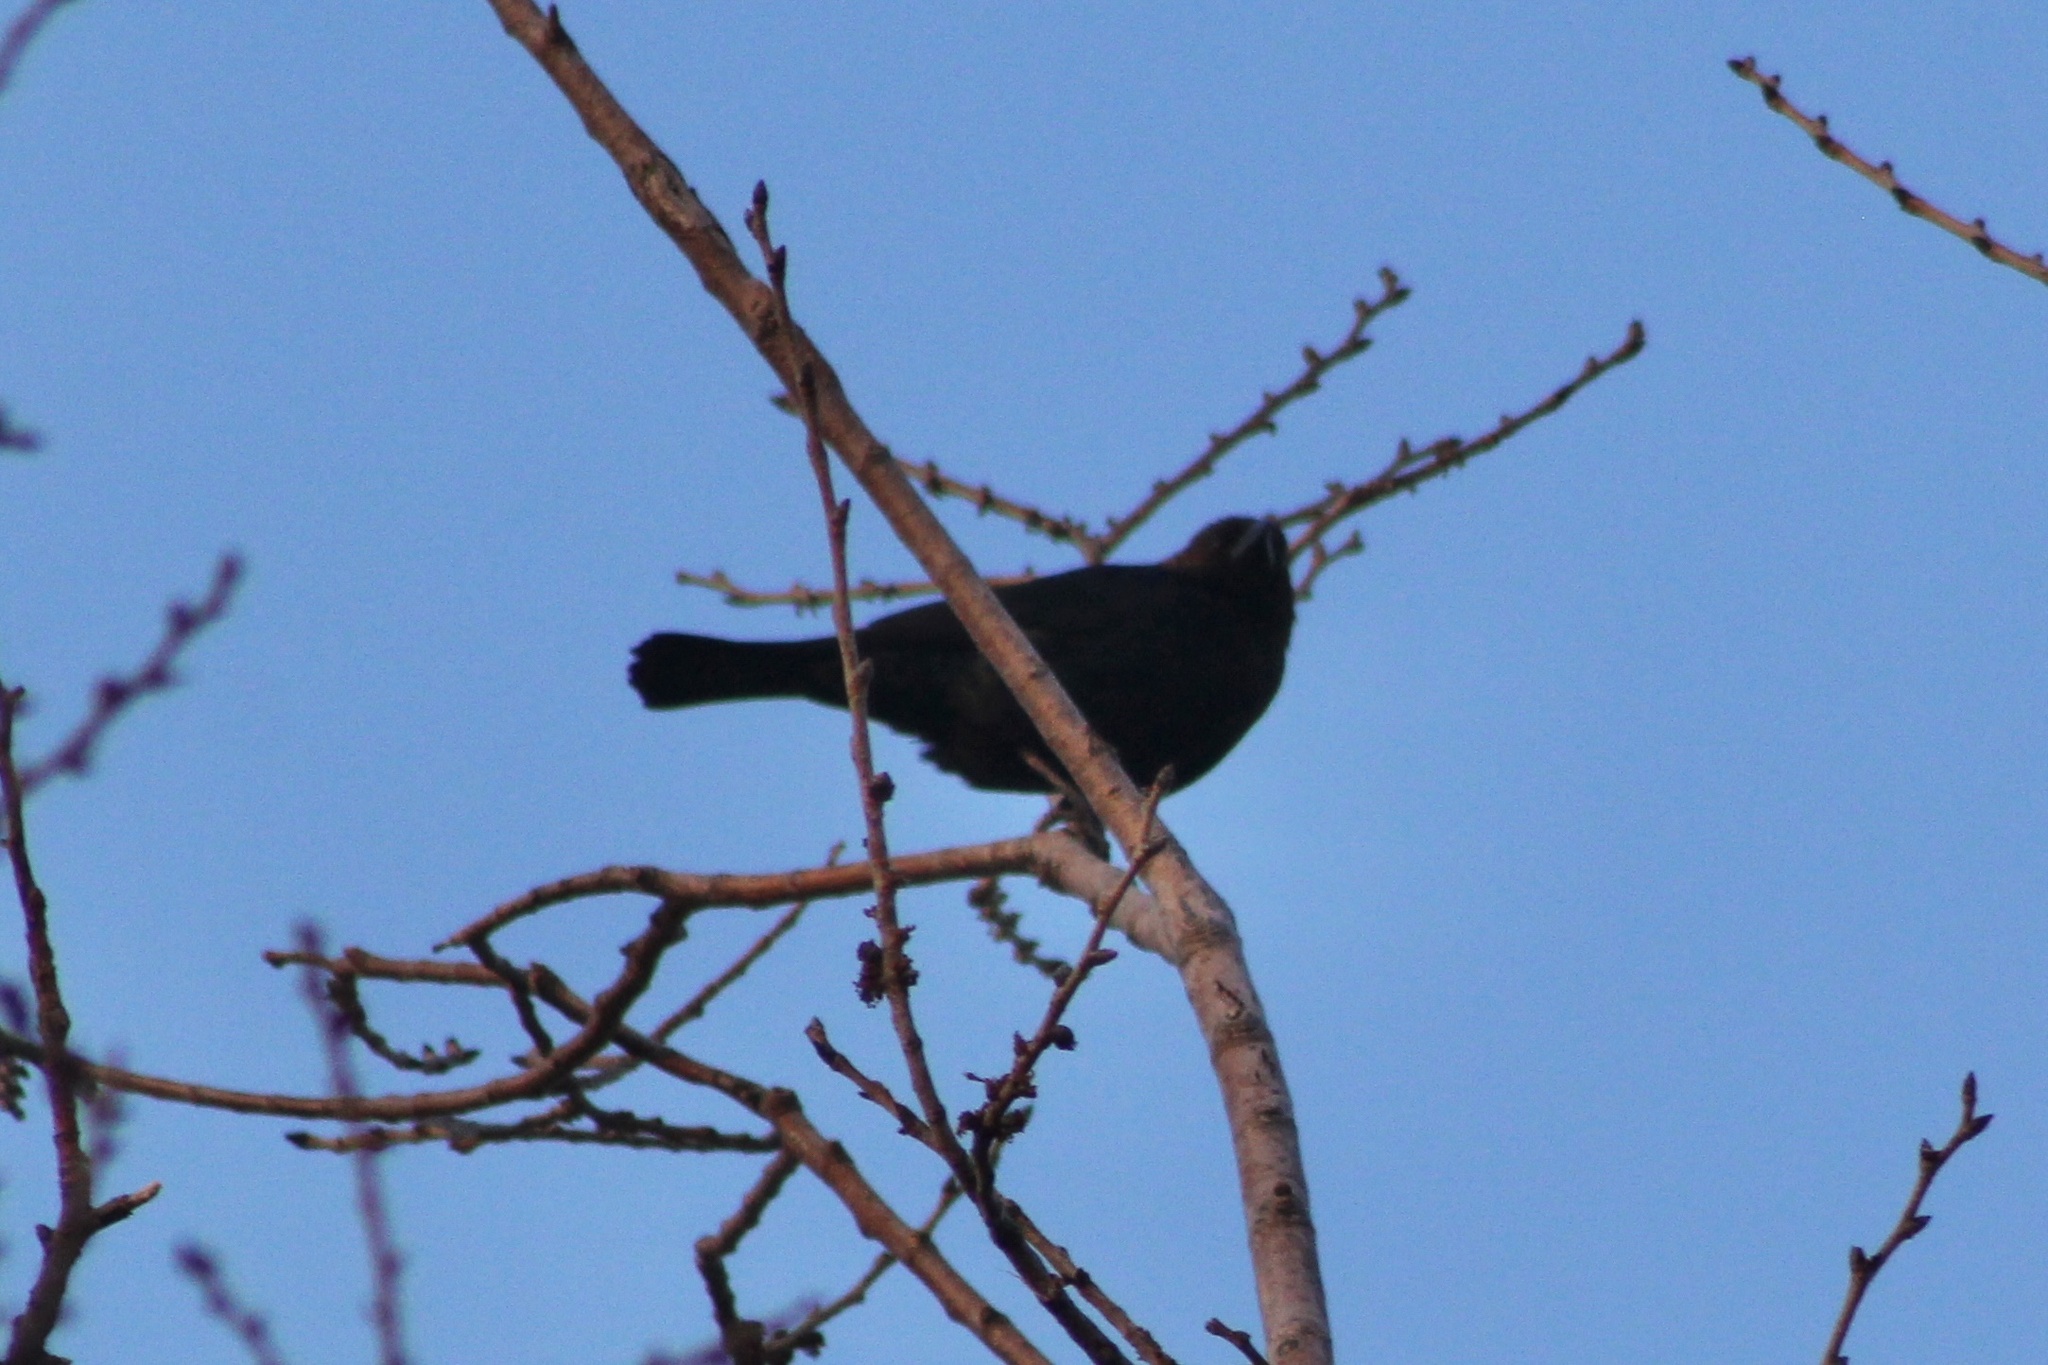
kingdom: Animalia
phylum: Chordata
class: Aves
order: Passeriformes
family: Icteridae
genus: Molothrus
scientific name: Molothrus ater
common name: Brown-headed cowbird
